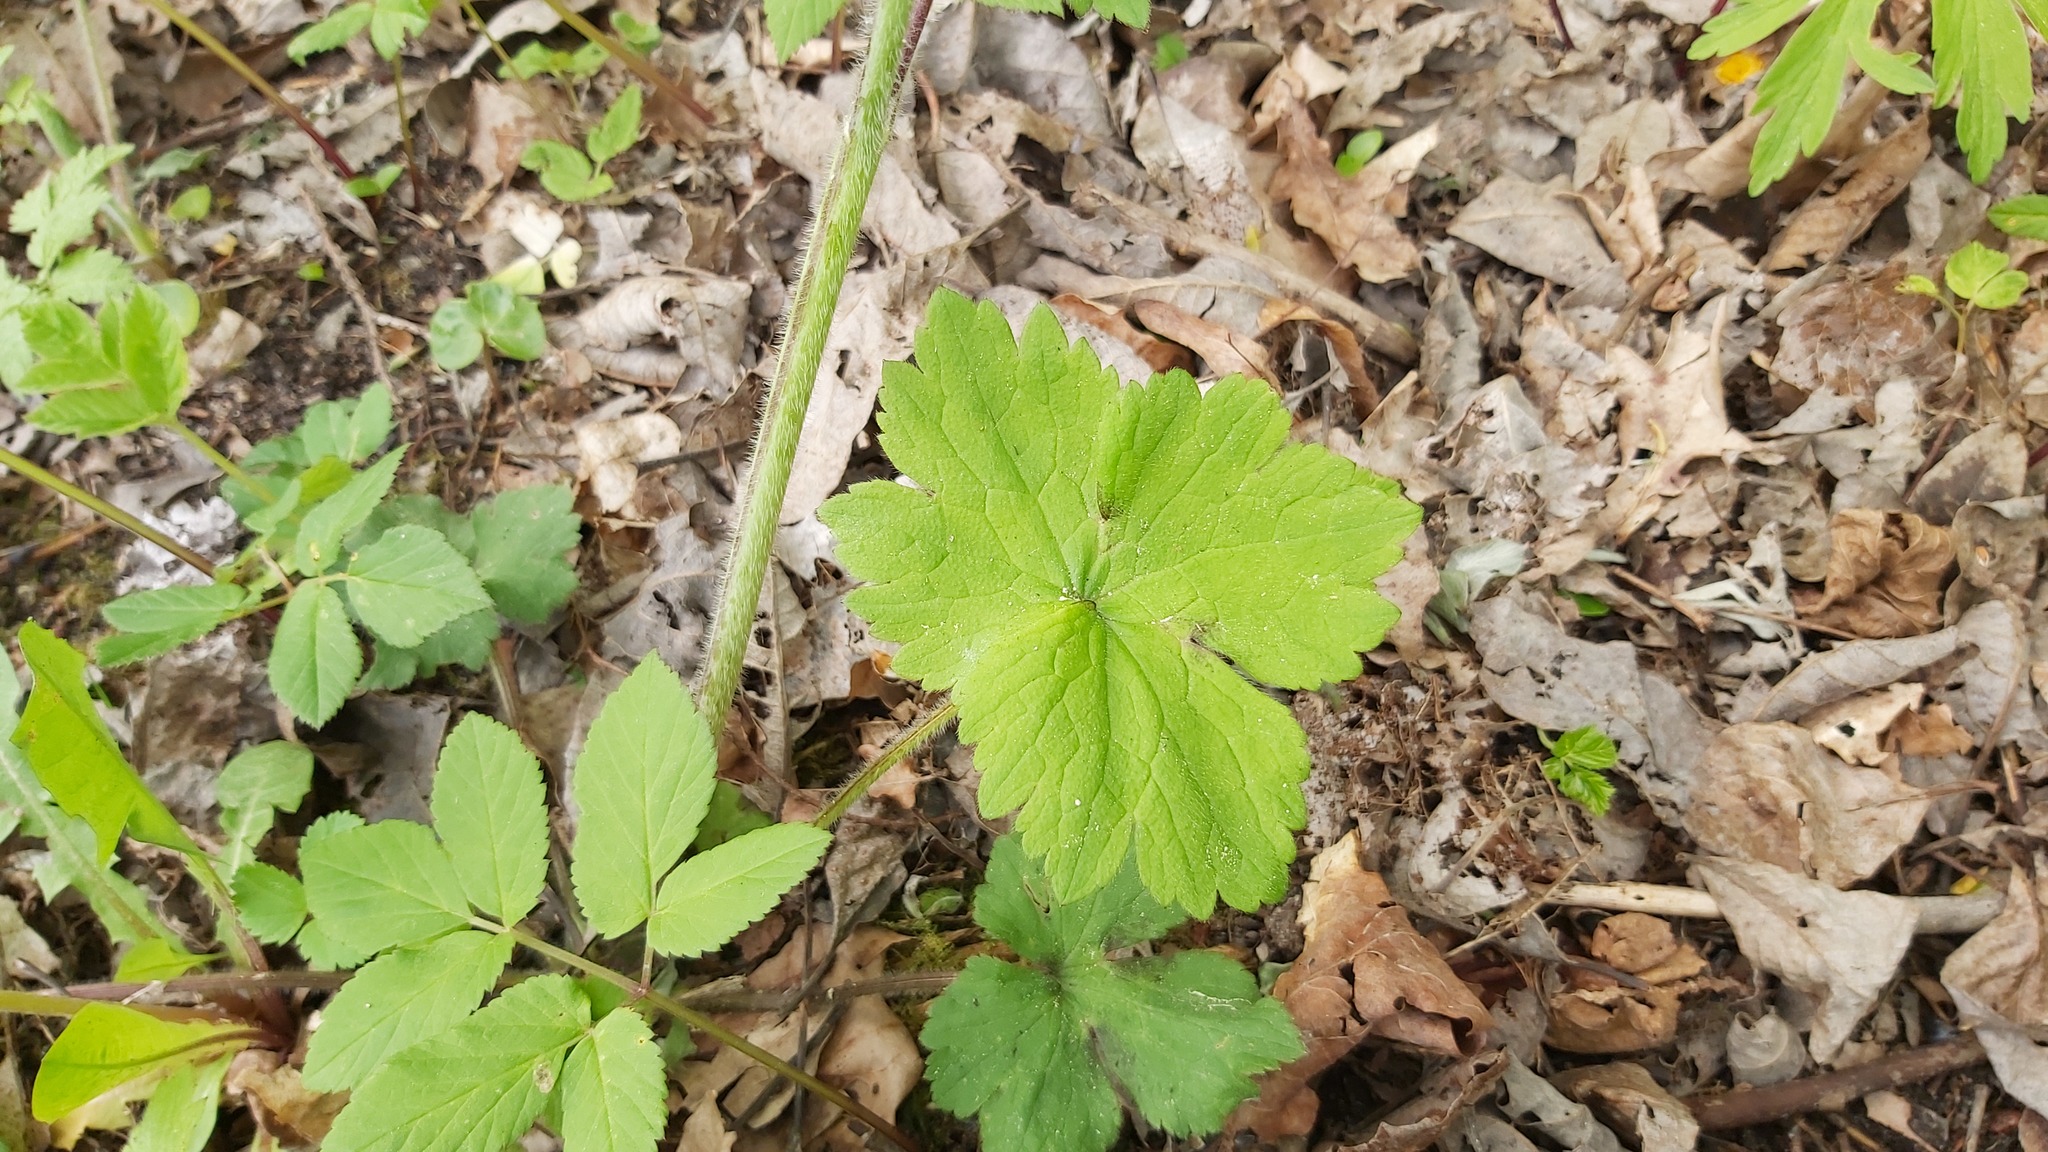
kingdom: Plantae
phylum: Tracheophyta
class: Magnoliopsida
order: Ranunculales
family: Ranunculaceae
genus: Ranunculus
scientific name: Ranunculus lanuginosus
